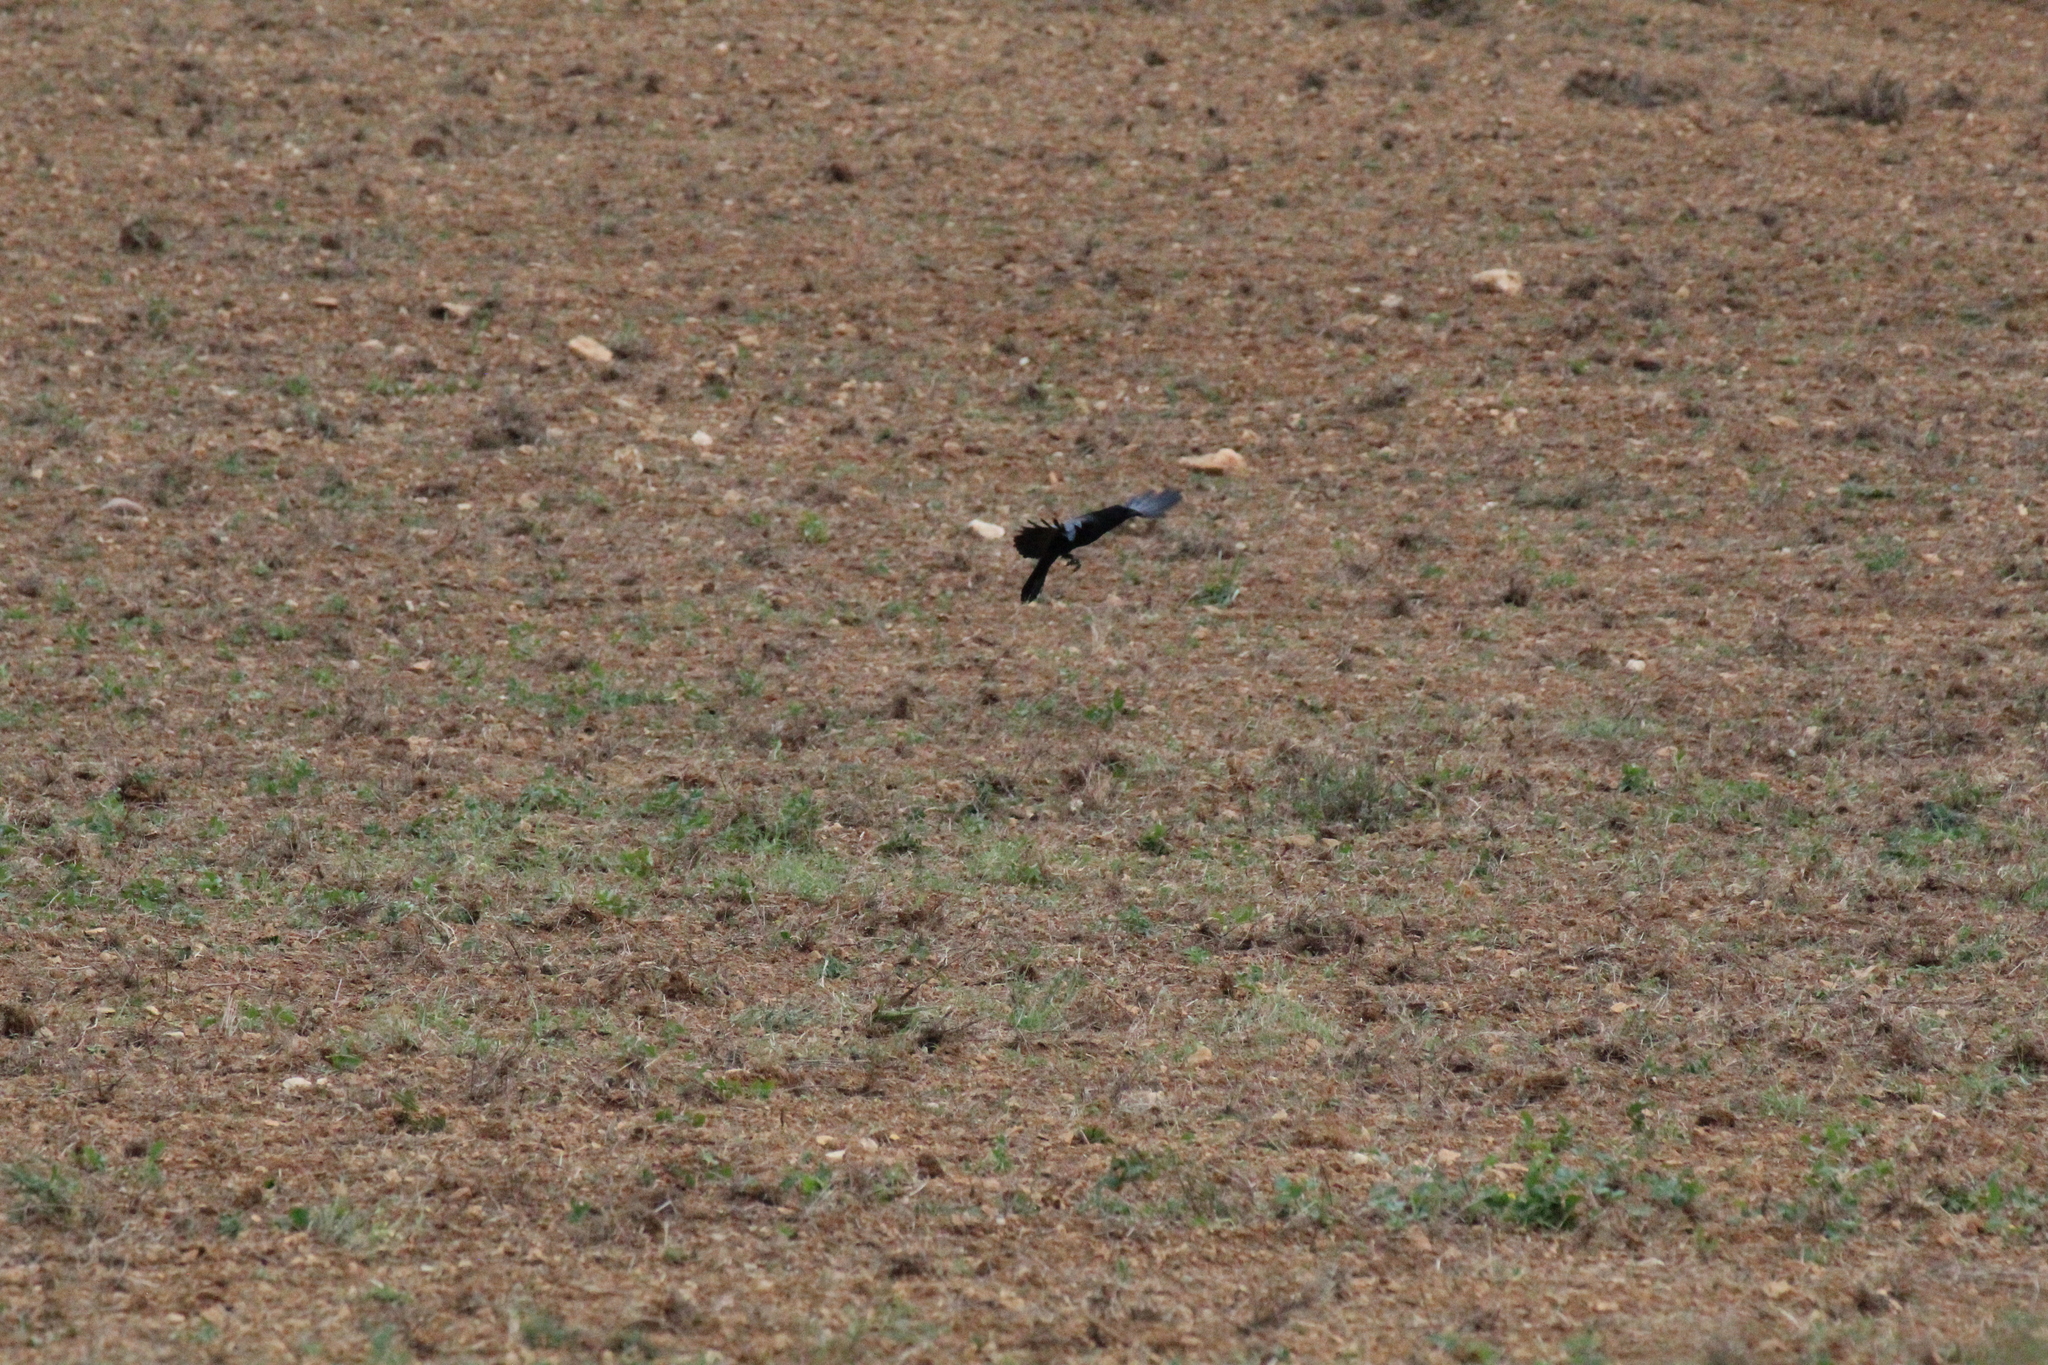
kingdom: Animalia
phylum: Chordata
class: Aves
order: Passeriformes
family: Corvidae
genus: Corvus
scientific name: Corvus corone
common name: Carrion crow
